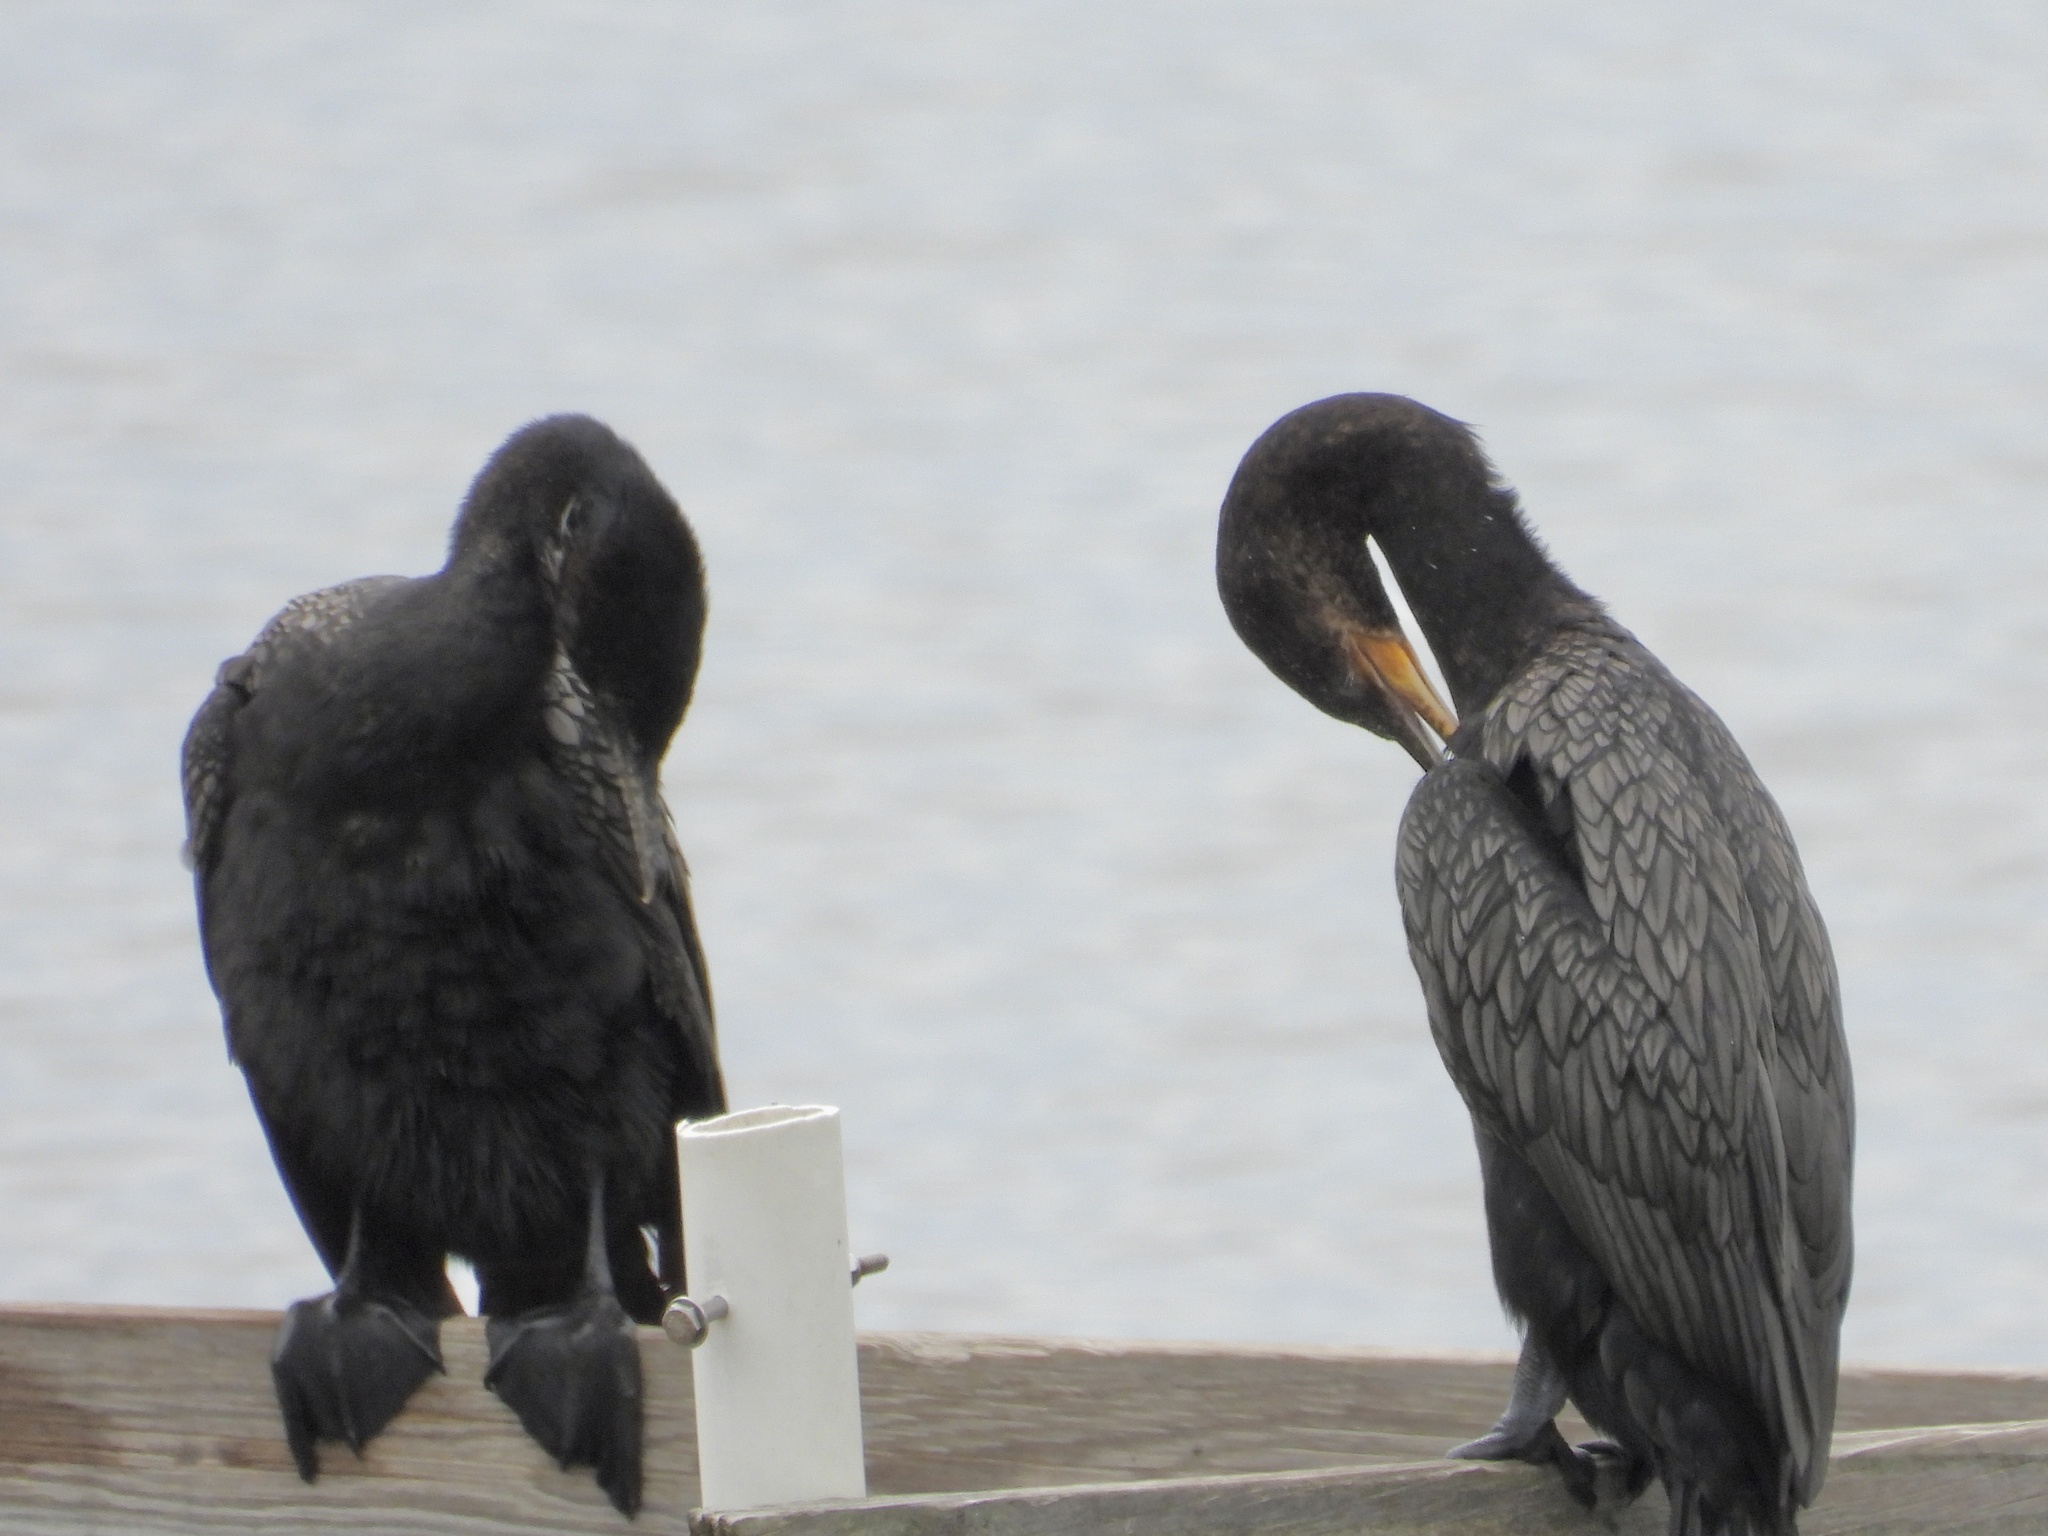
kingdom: Animalia
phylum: Chordata
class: Aves
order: Suliformes
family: Phalacrocoracidae
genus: Phalacrocorax
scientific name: Phalacrocorax brasilianus
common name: Neotropic cormorant
